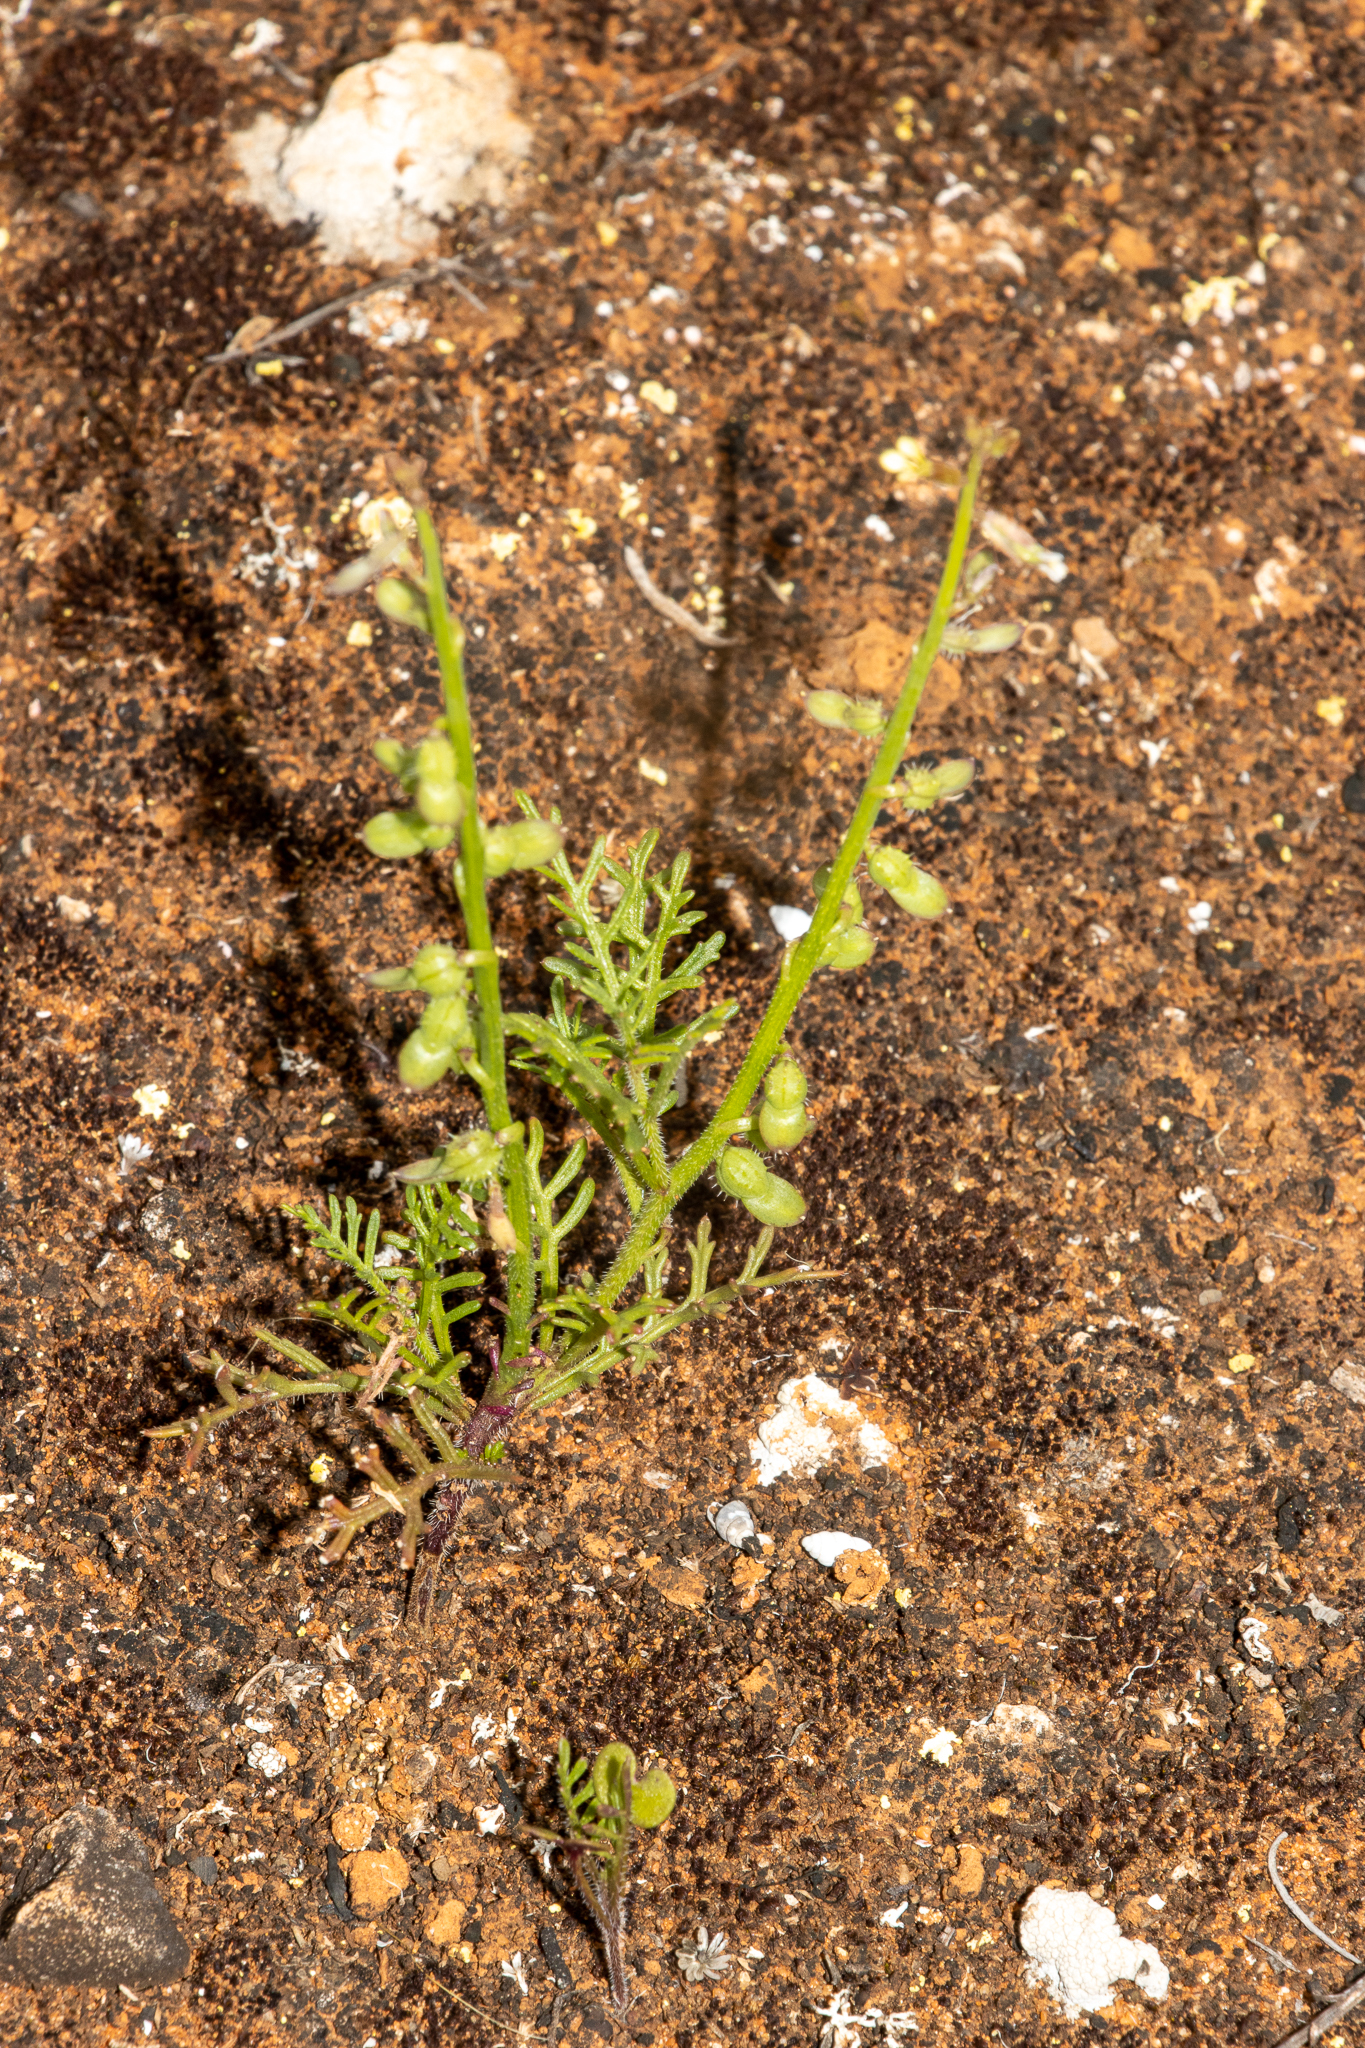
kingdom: Plantae
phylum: Tracheophyta
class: Magnoliopsida
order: Brassicales
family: Brassicaceae
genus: Carrichtera
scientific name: Carrichtera annua
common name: Cress rocket
